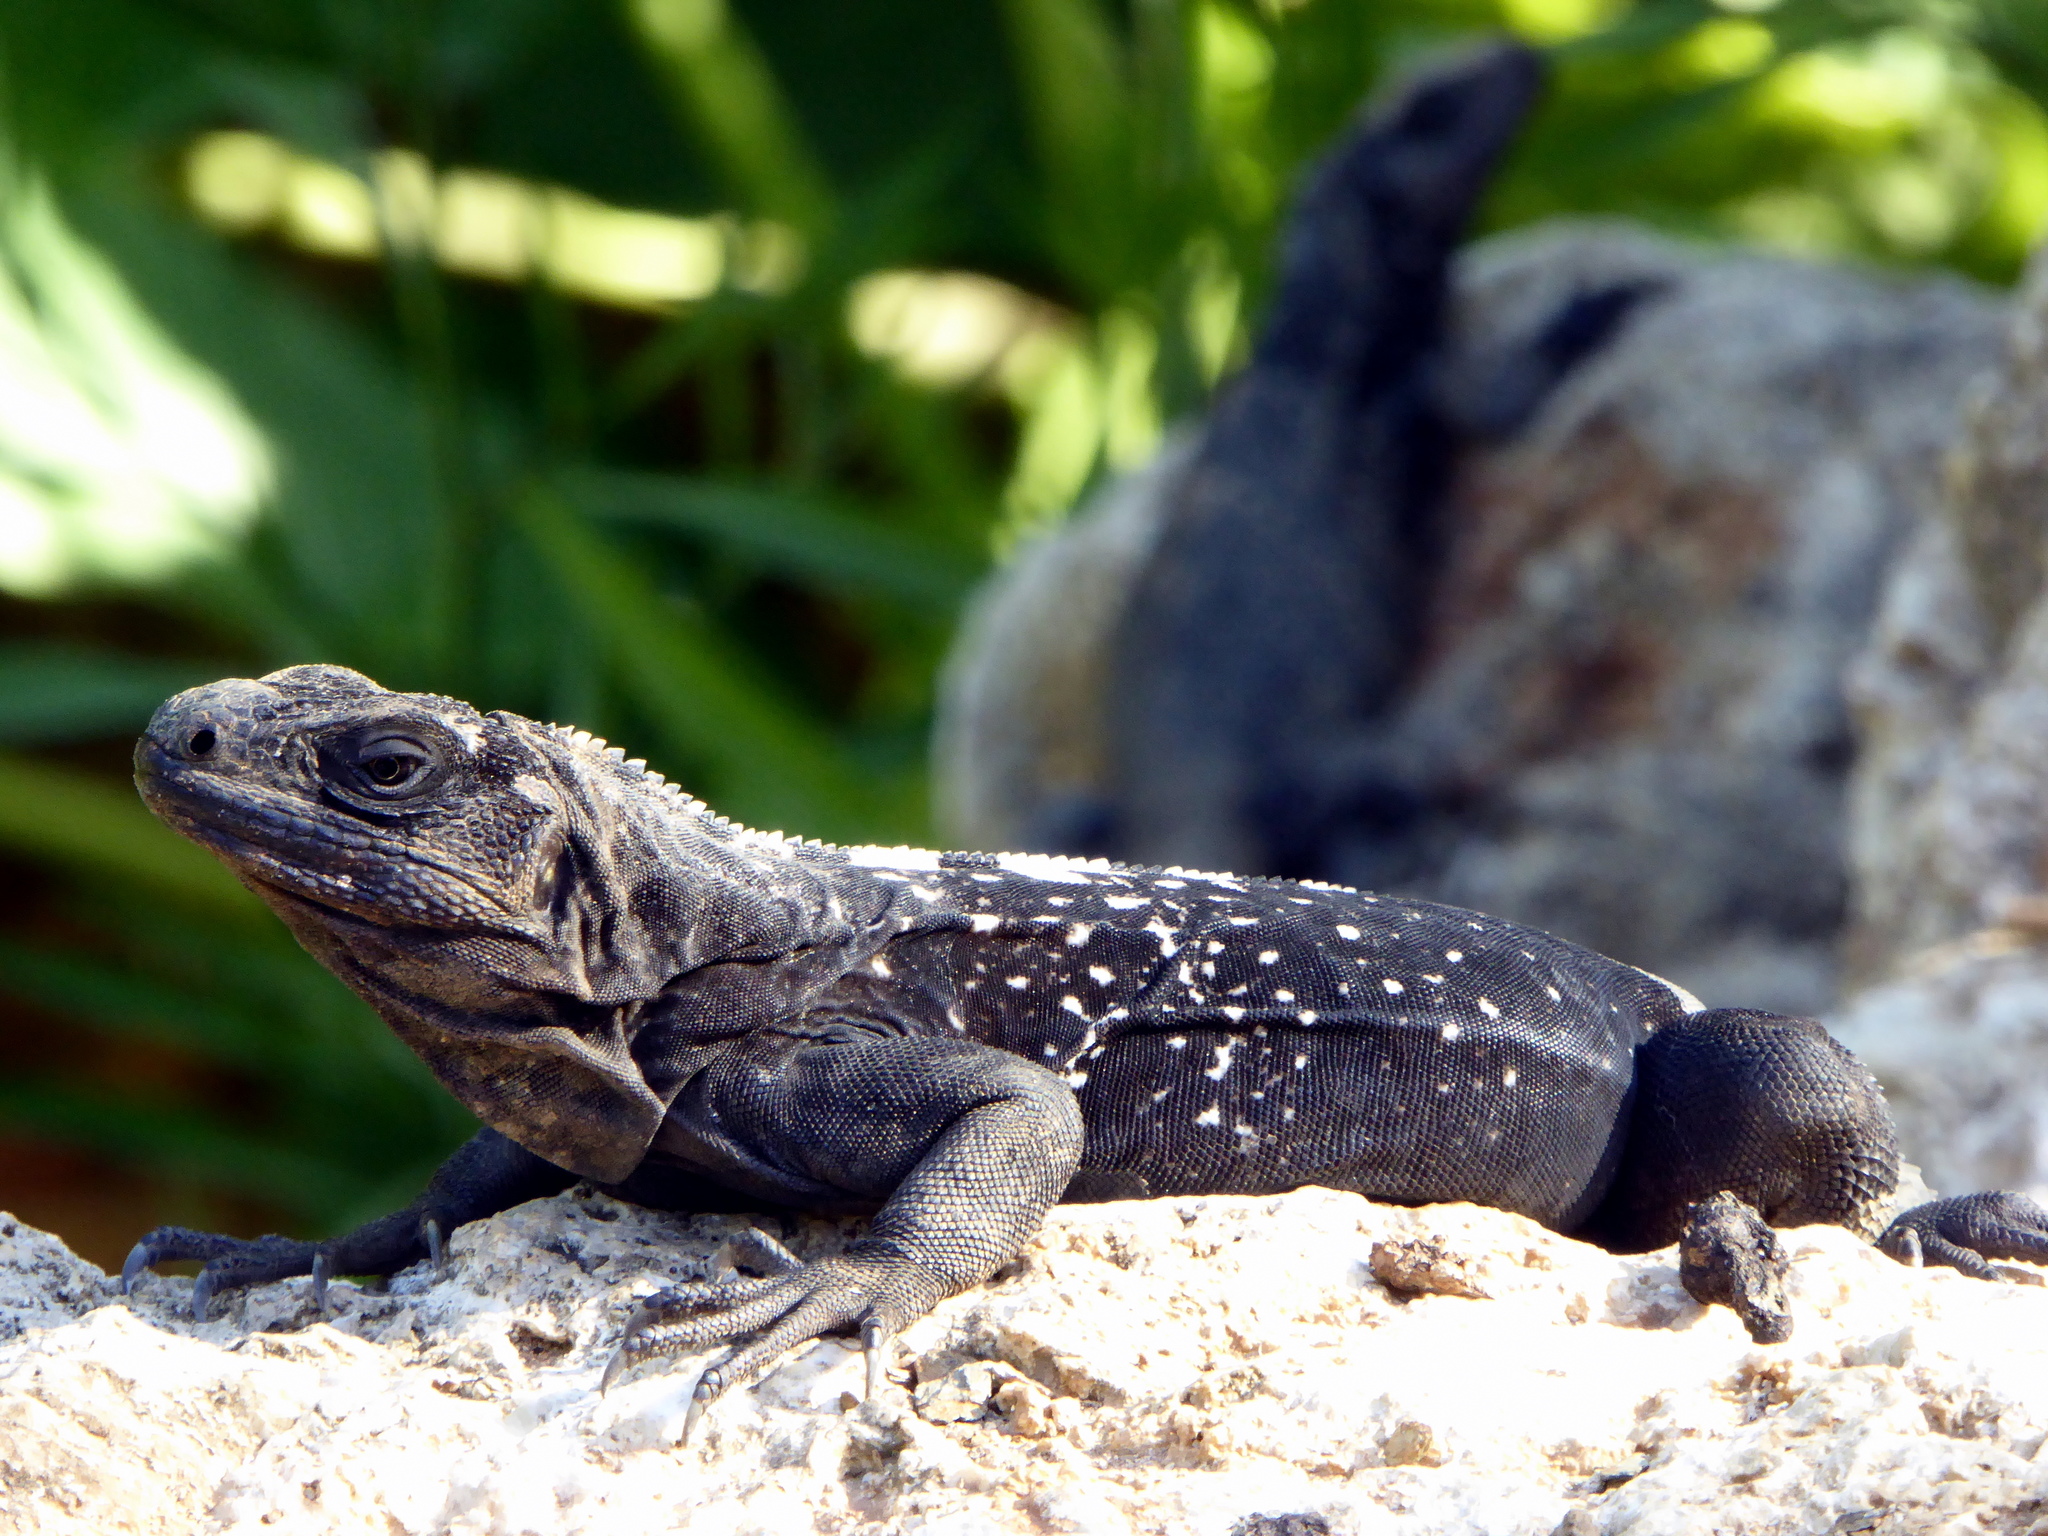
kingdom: Animalia
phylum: Chordata
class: Squamata
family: Iguanidae
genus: Ctenosaura
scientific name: Ctenosaura oedirhina
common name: Roatan spiny-tailed iguana
